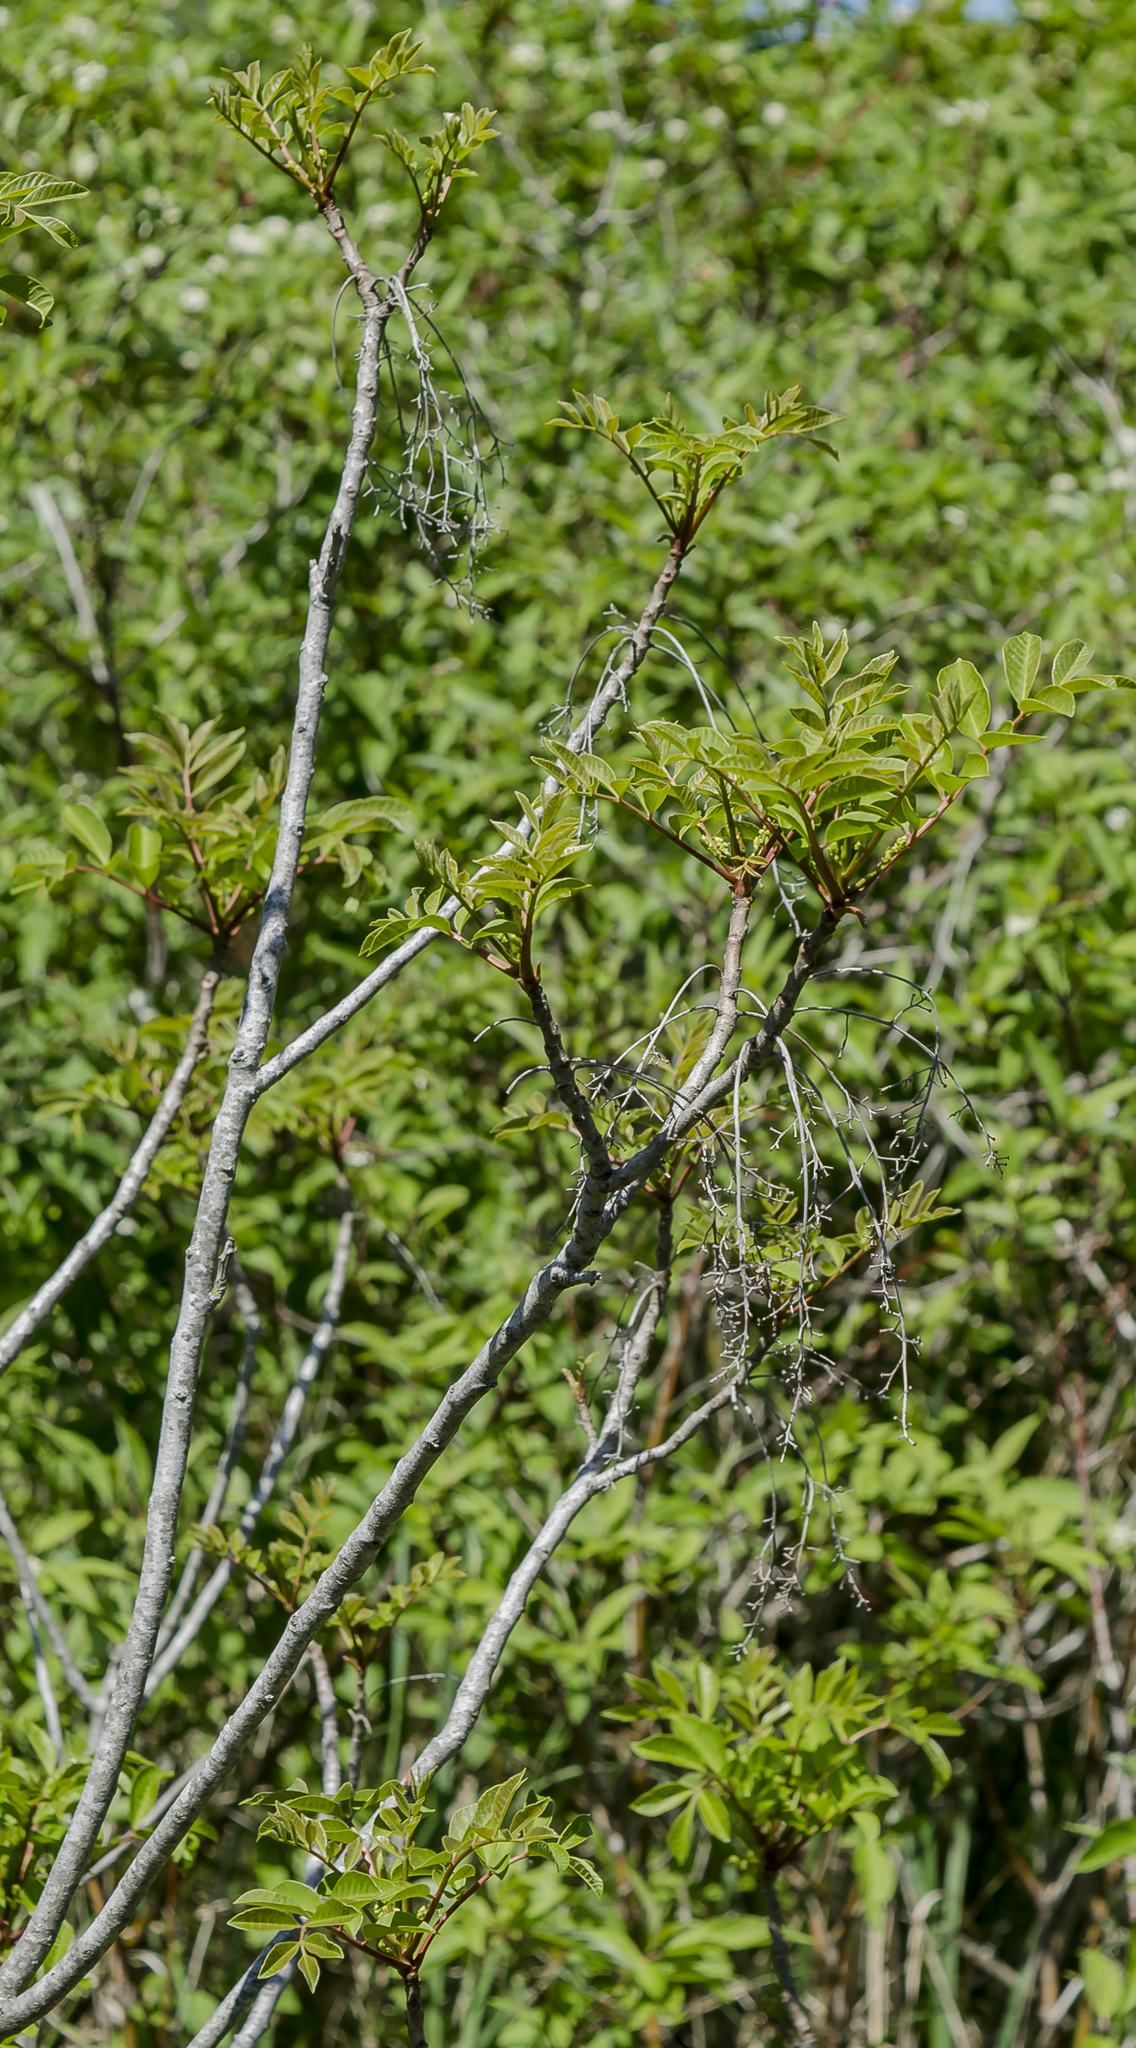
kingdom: Plantae
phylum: Tracheophyta
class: Magnoliopsida
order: Sapindales
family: Anacardiaceae
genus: Toxicodendron
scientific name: Toxicodendron vernix
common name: Poison sumac
